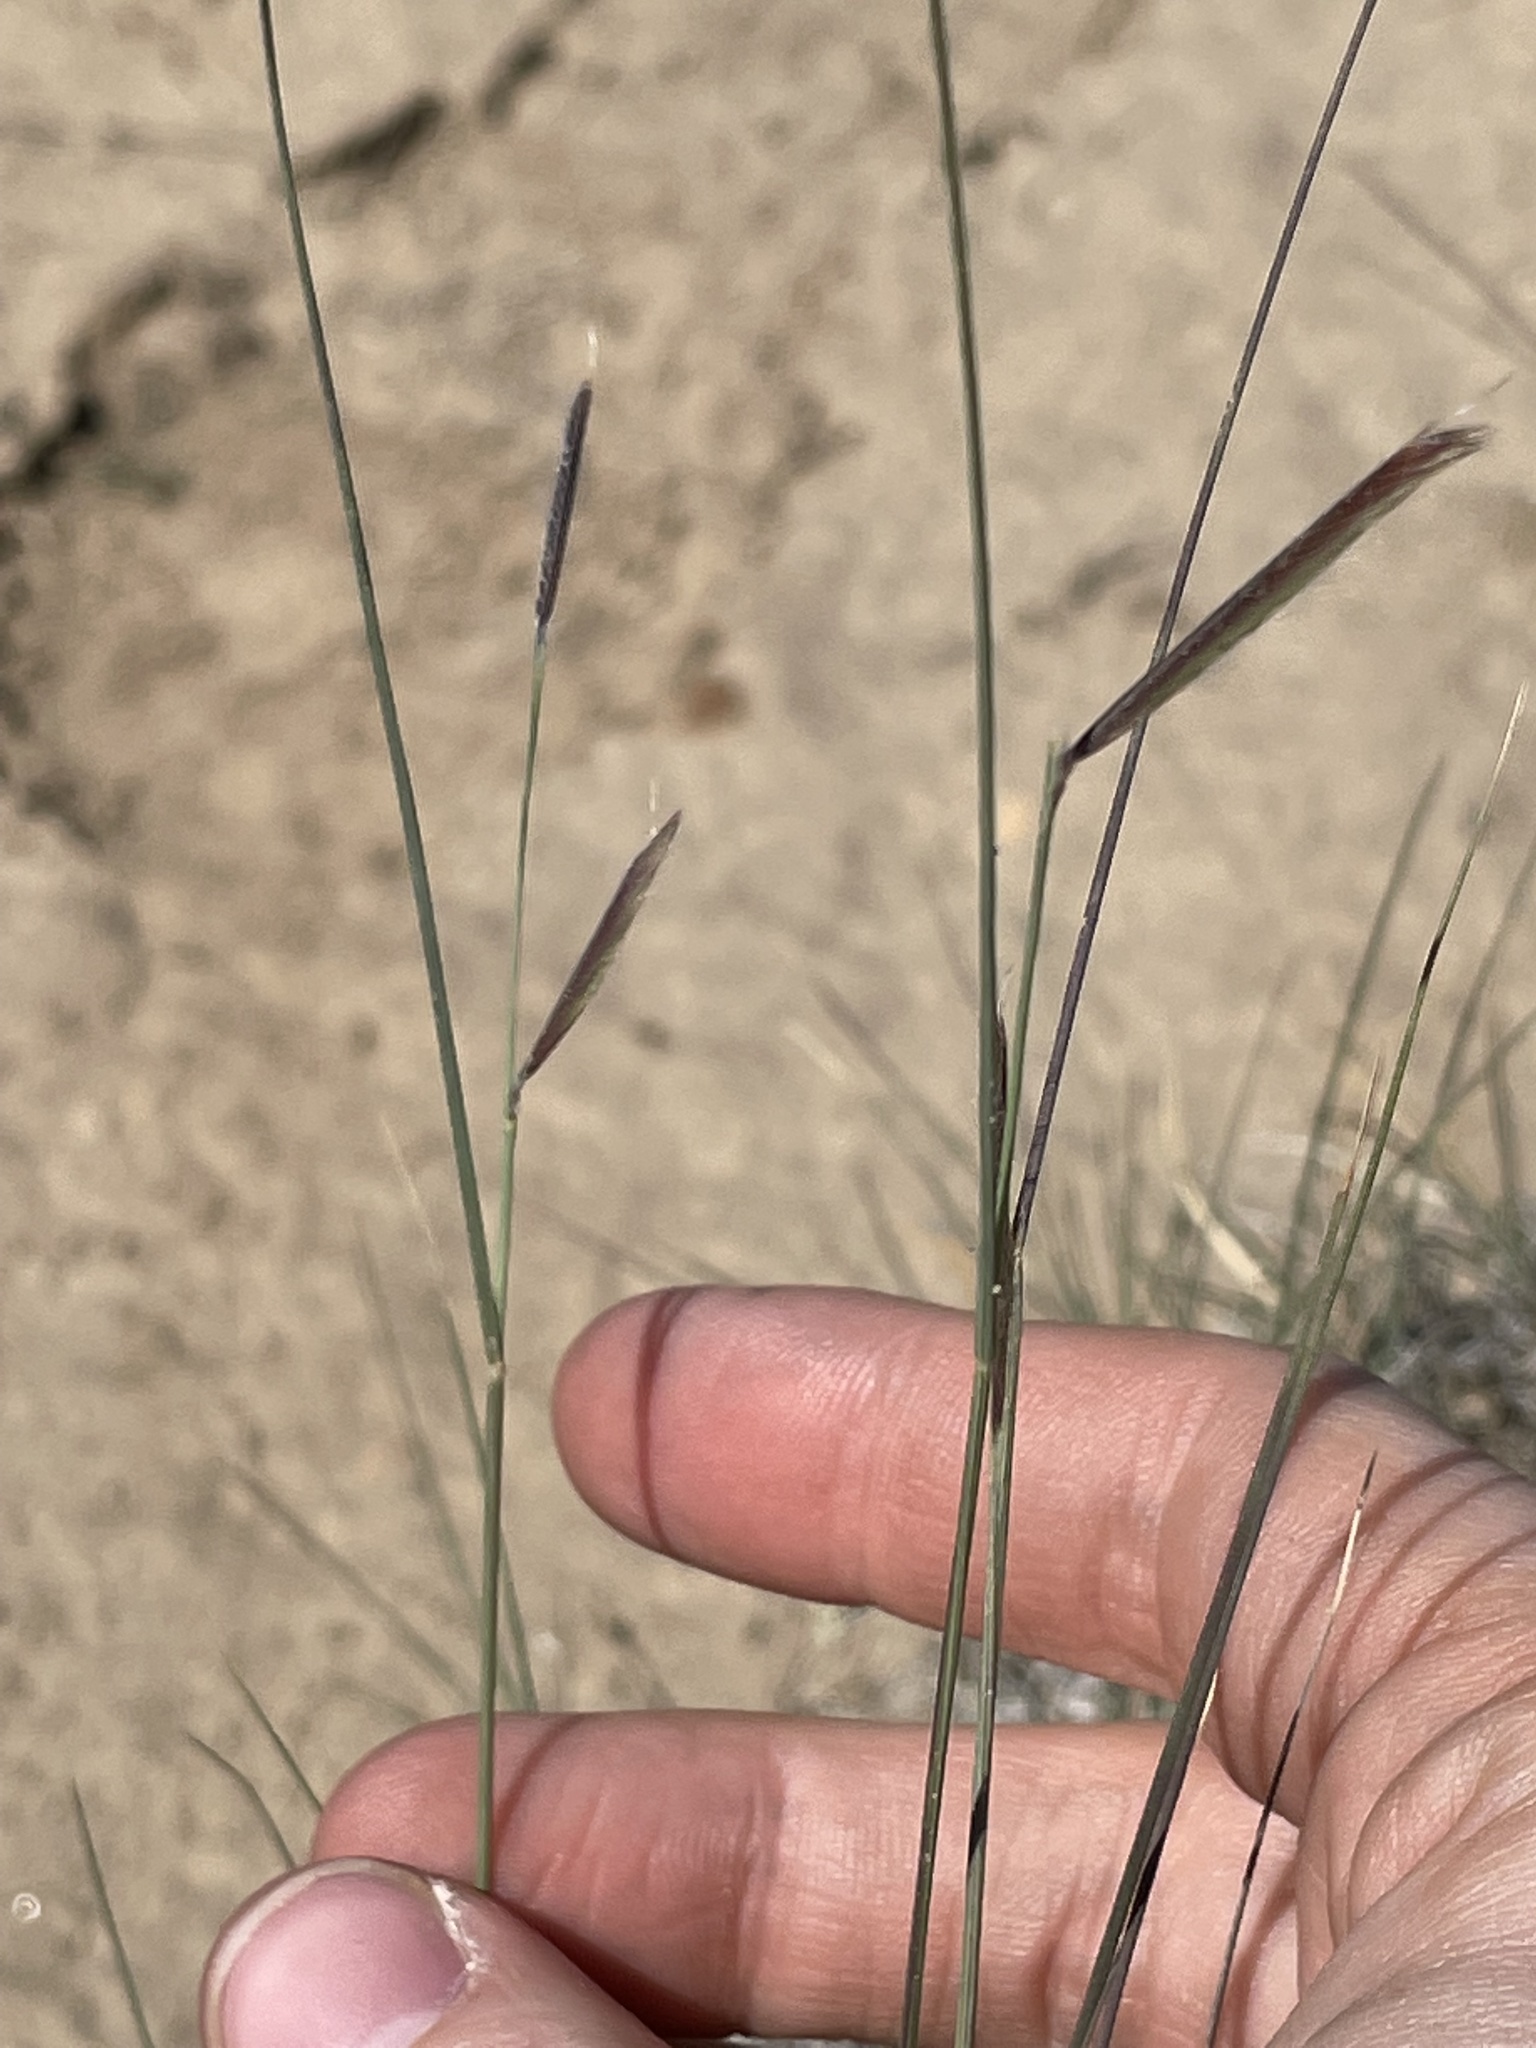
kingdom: Plantae
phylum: Tracheophyta
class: Liliopsida
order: Poales
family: Poaceae
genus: Bouteloua
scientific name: Bouteloua gracilis
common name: Blue grama
